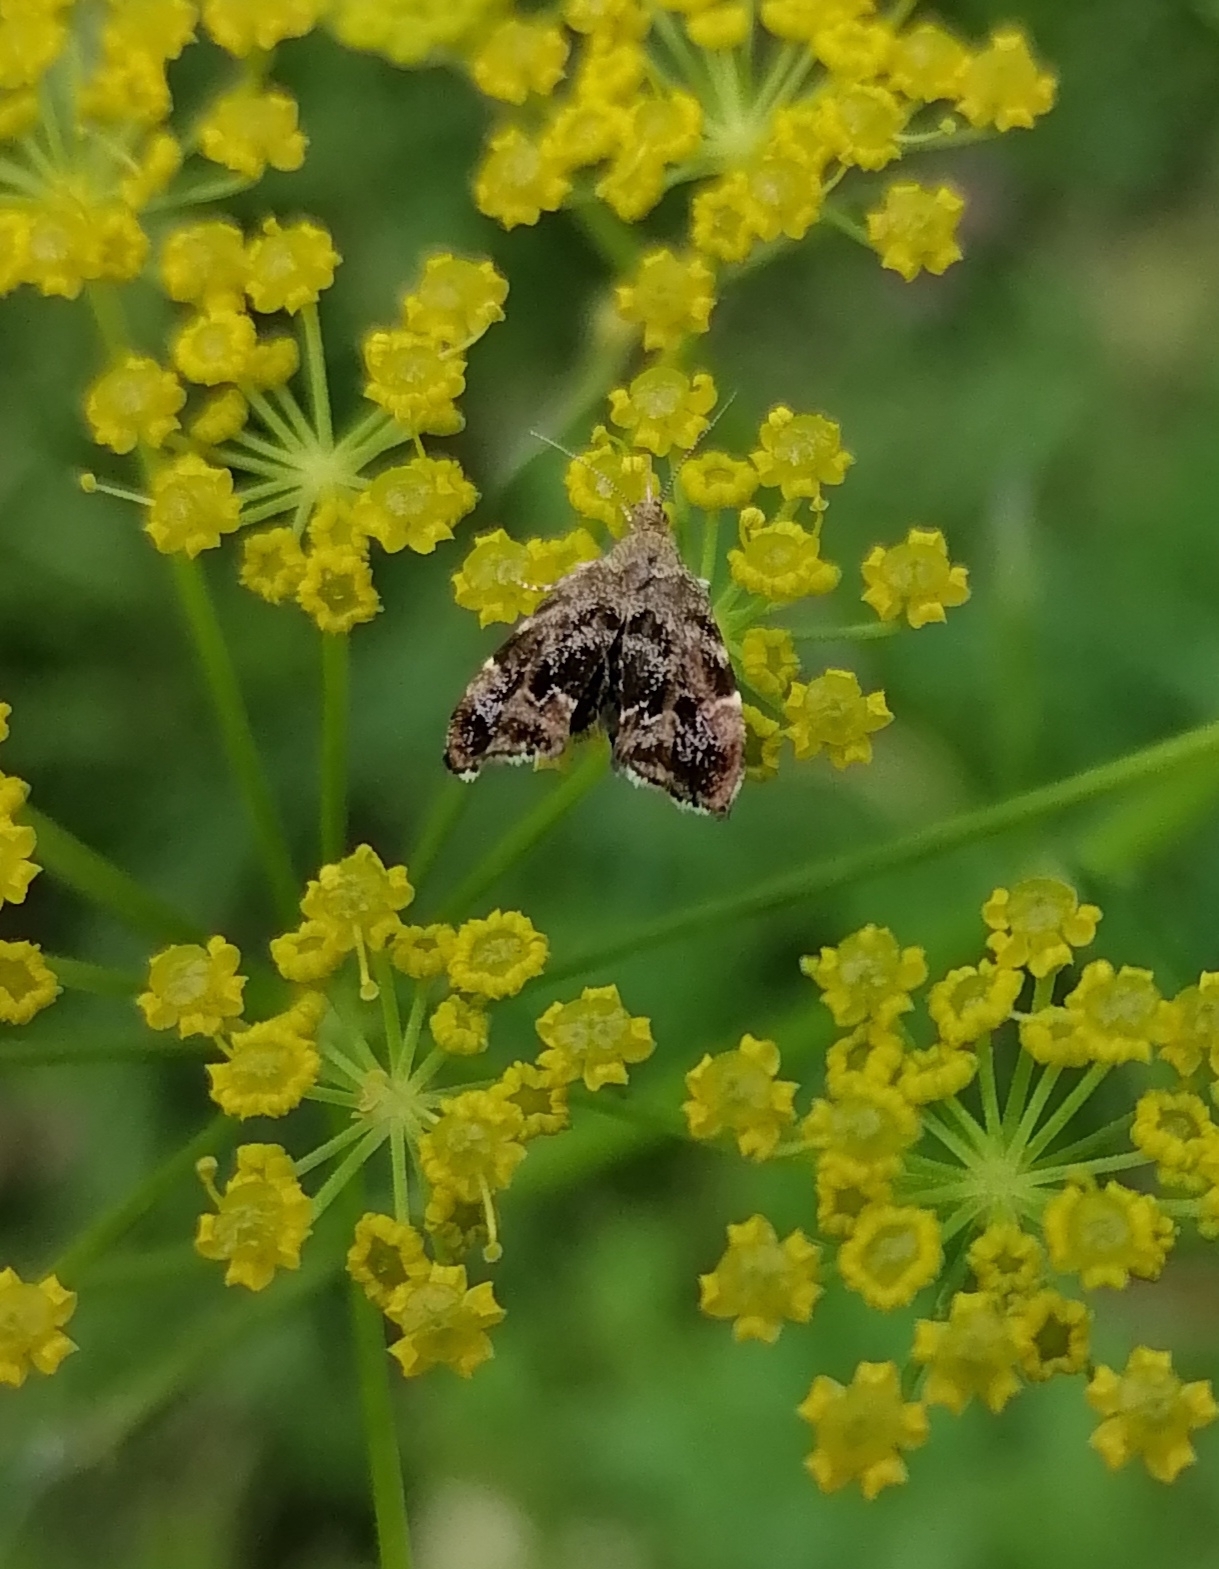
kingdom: Animalia
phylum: Arthropoda
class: Insecta
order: Lepidoptera
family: Choreutidae
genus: Anthophila
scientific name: Anthophila fabriciana
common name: Nettle-tap
